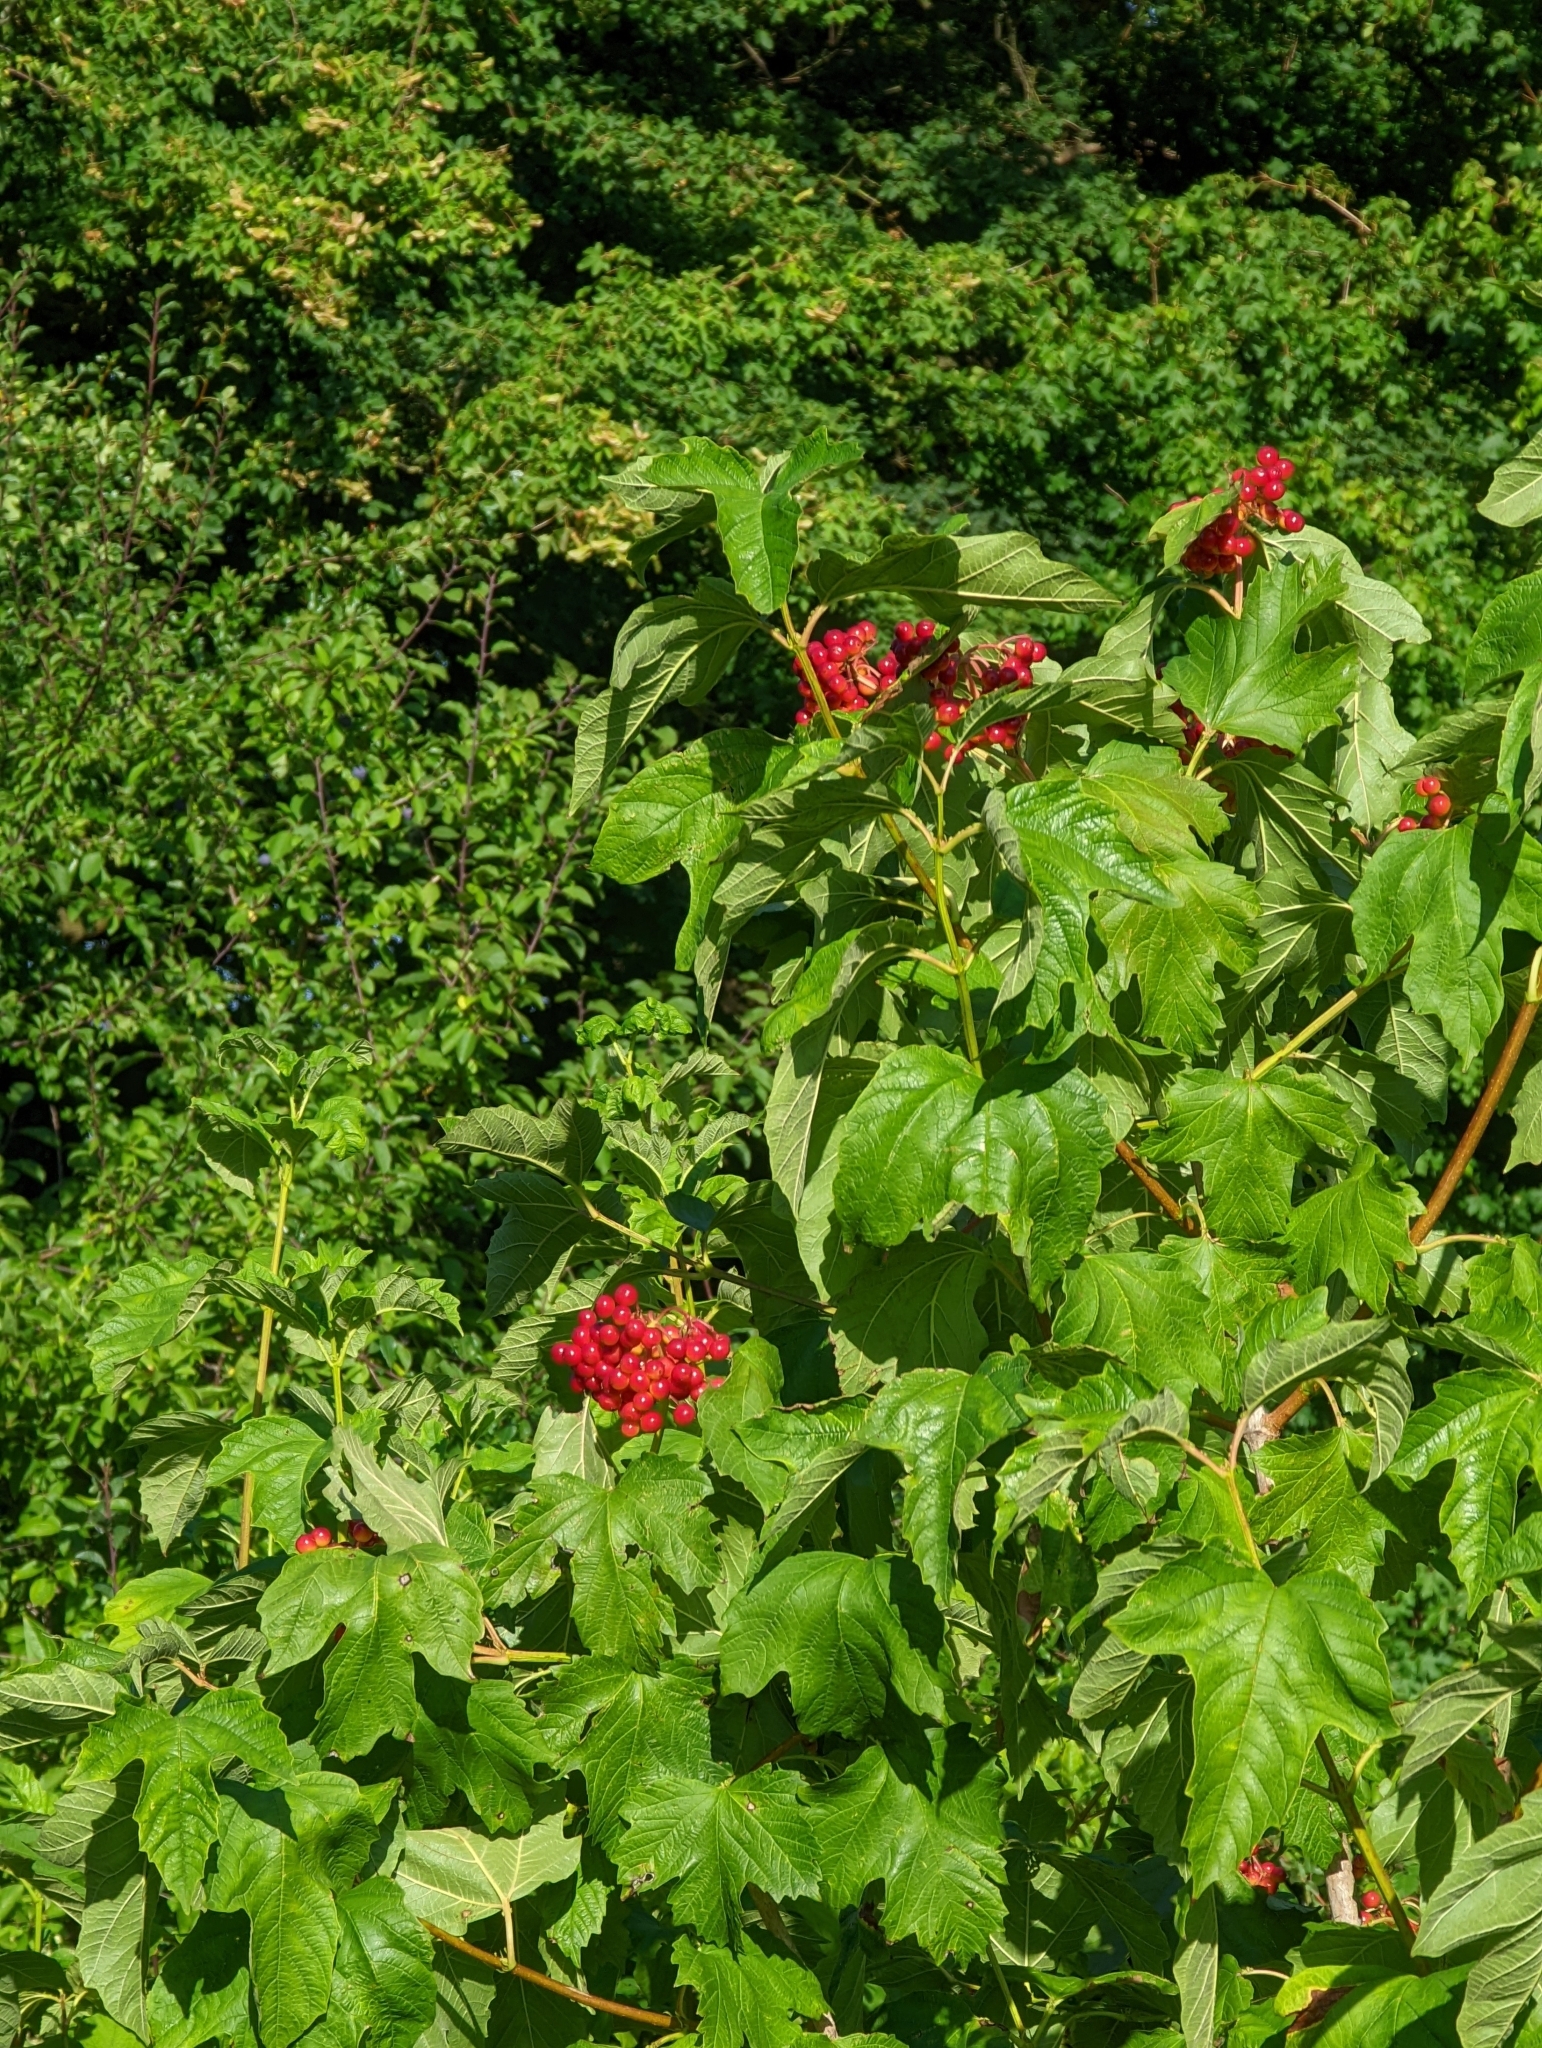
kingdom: Plantae
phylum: Tracheophyta
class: Magnoliopsida
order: Dipsacales
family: Viburnaceae
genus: Viburnum
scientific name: Viburnum opulus
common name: Guelder-rose
